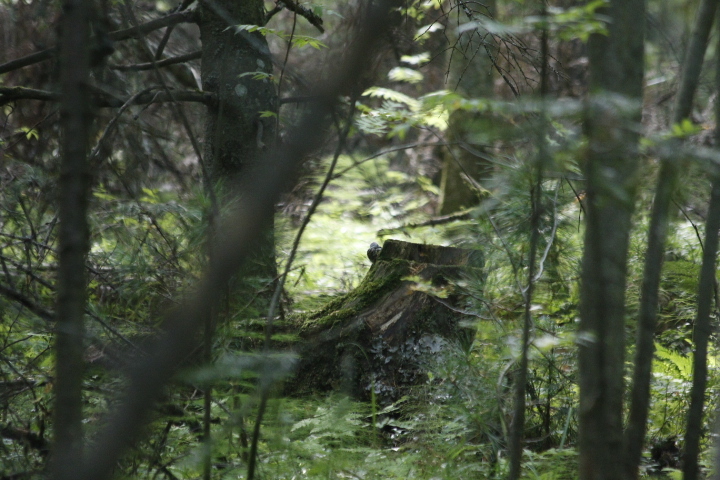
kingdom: Animalia
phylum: Chordata
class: Aves
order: Passeriformes
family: Sittidae
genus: Sitta
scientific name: Sitta europaea
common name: Eurasian nuthatch
